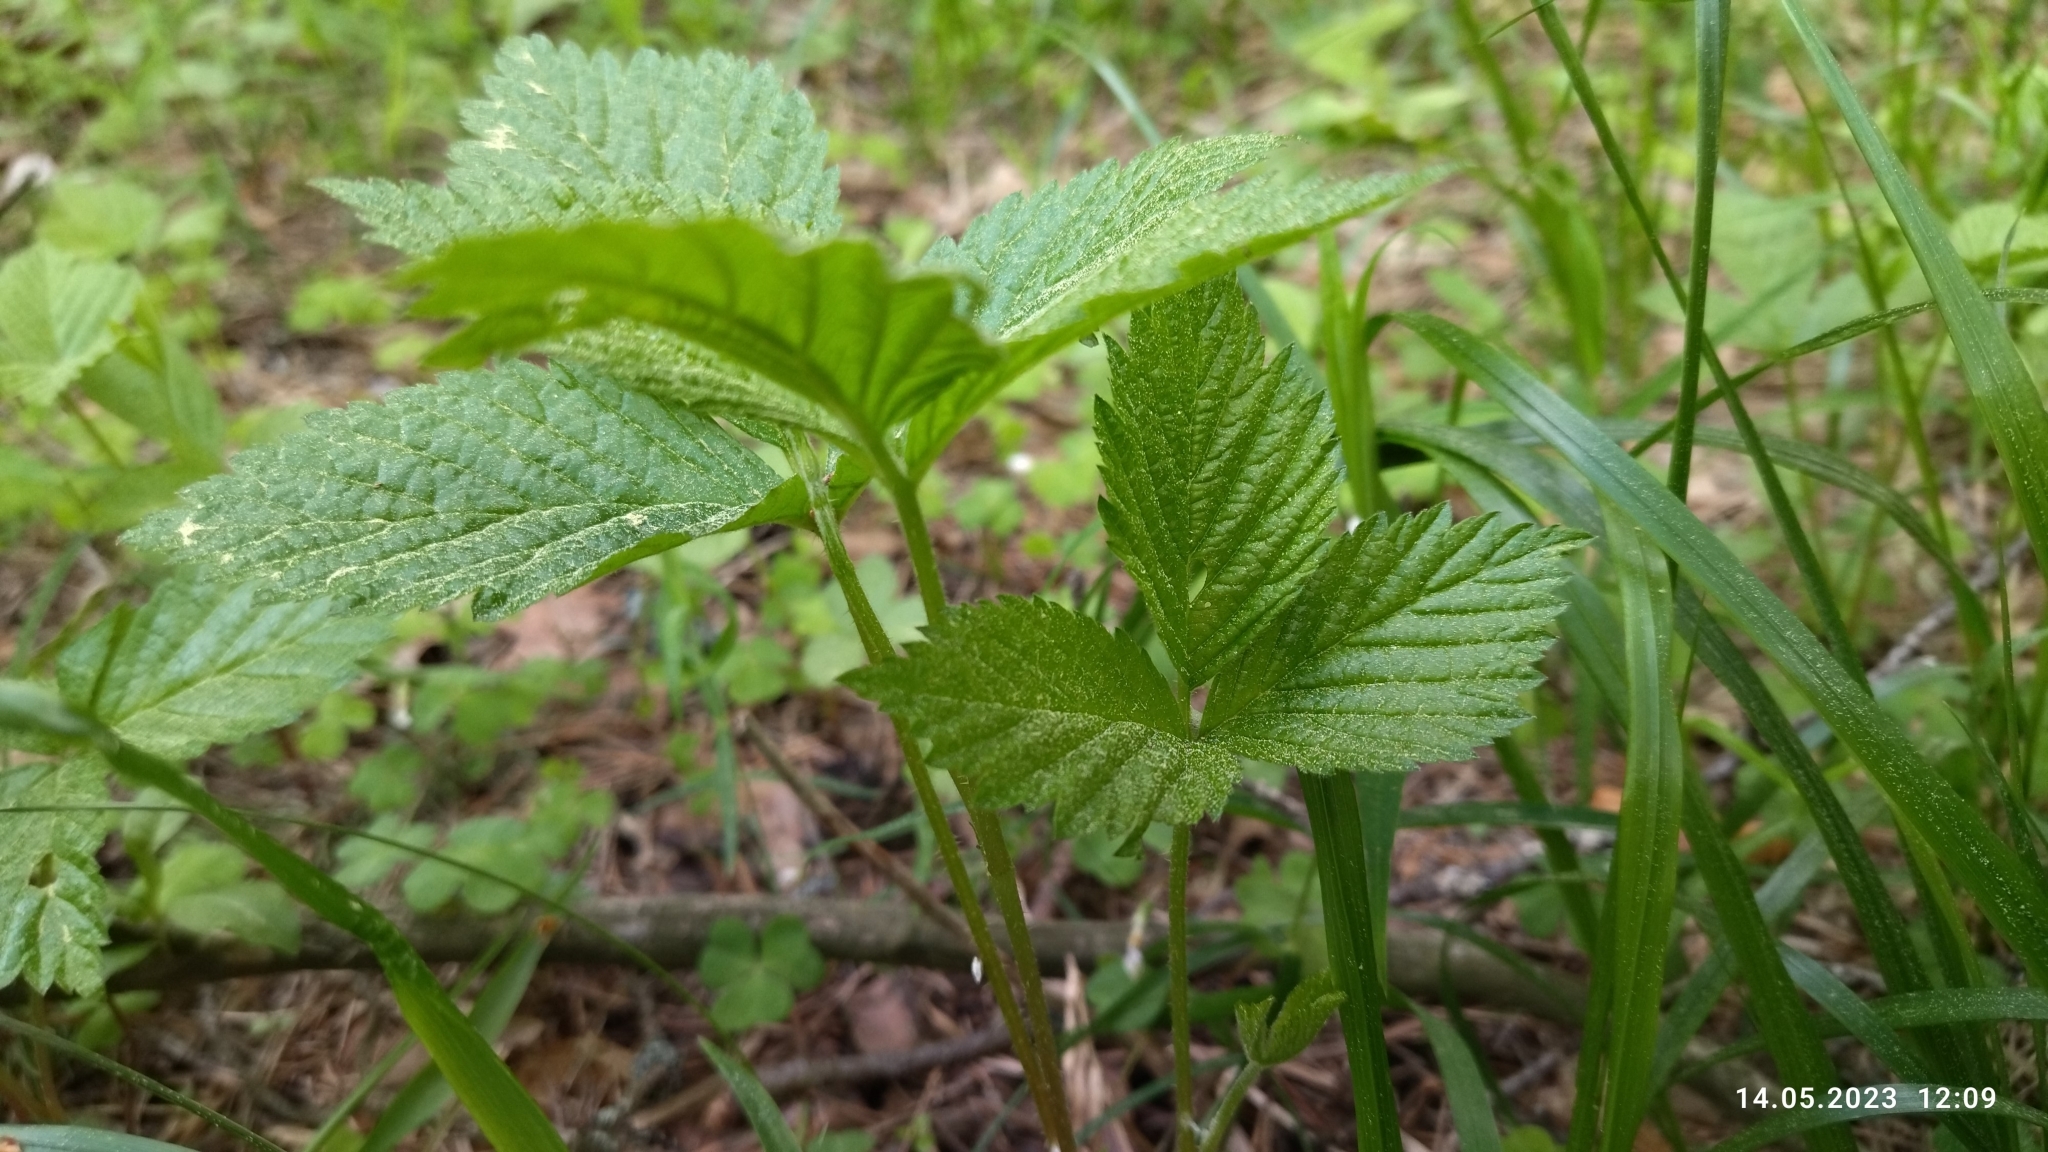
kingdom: Plantae
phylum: Tracheophyta
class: Magnoliopsida
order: Rosales
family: Rosaceae
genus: Rubus
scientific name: Rubus saxatilis
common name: Stone bramble
